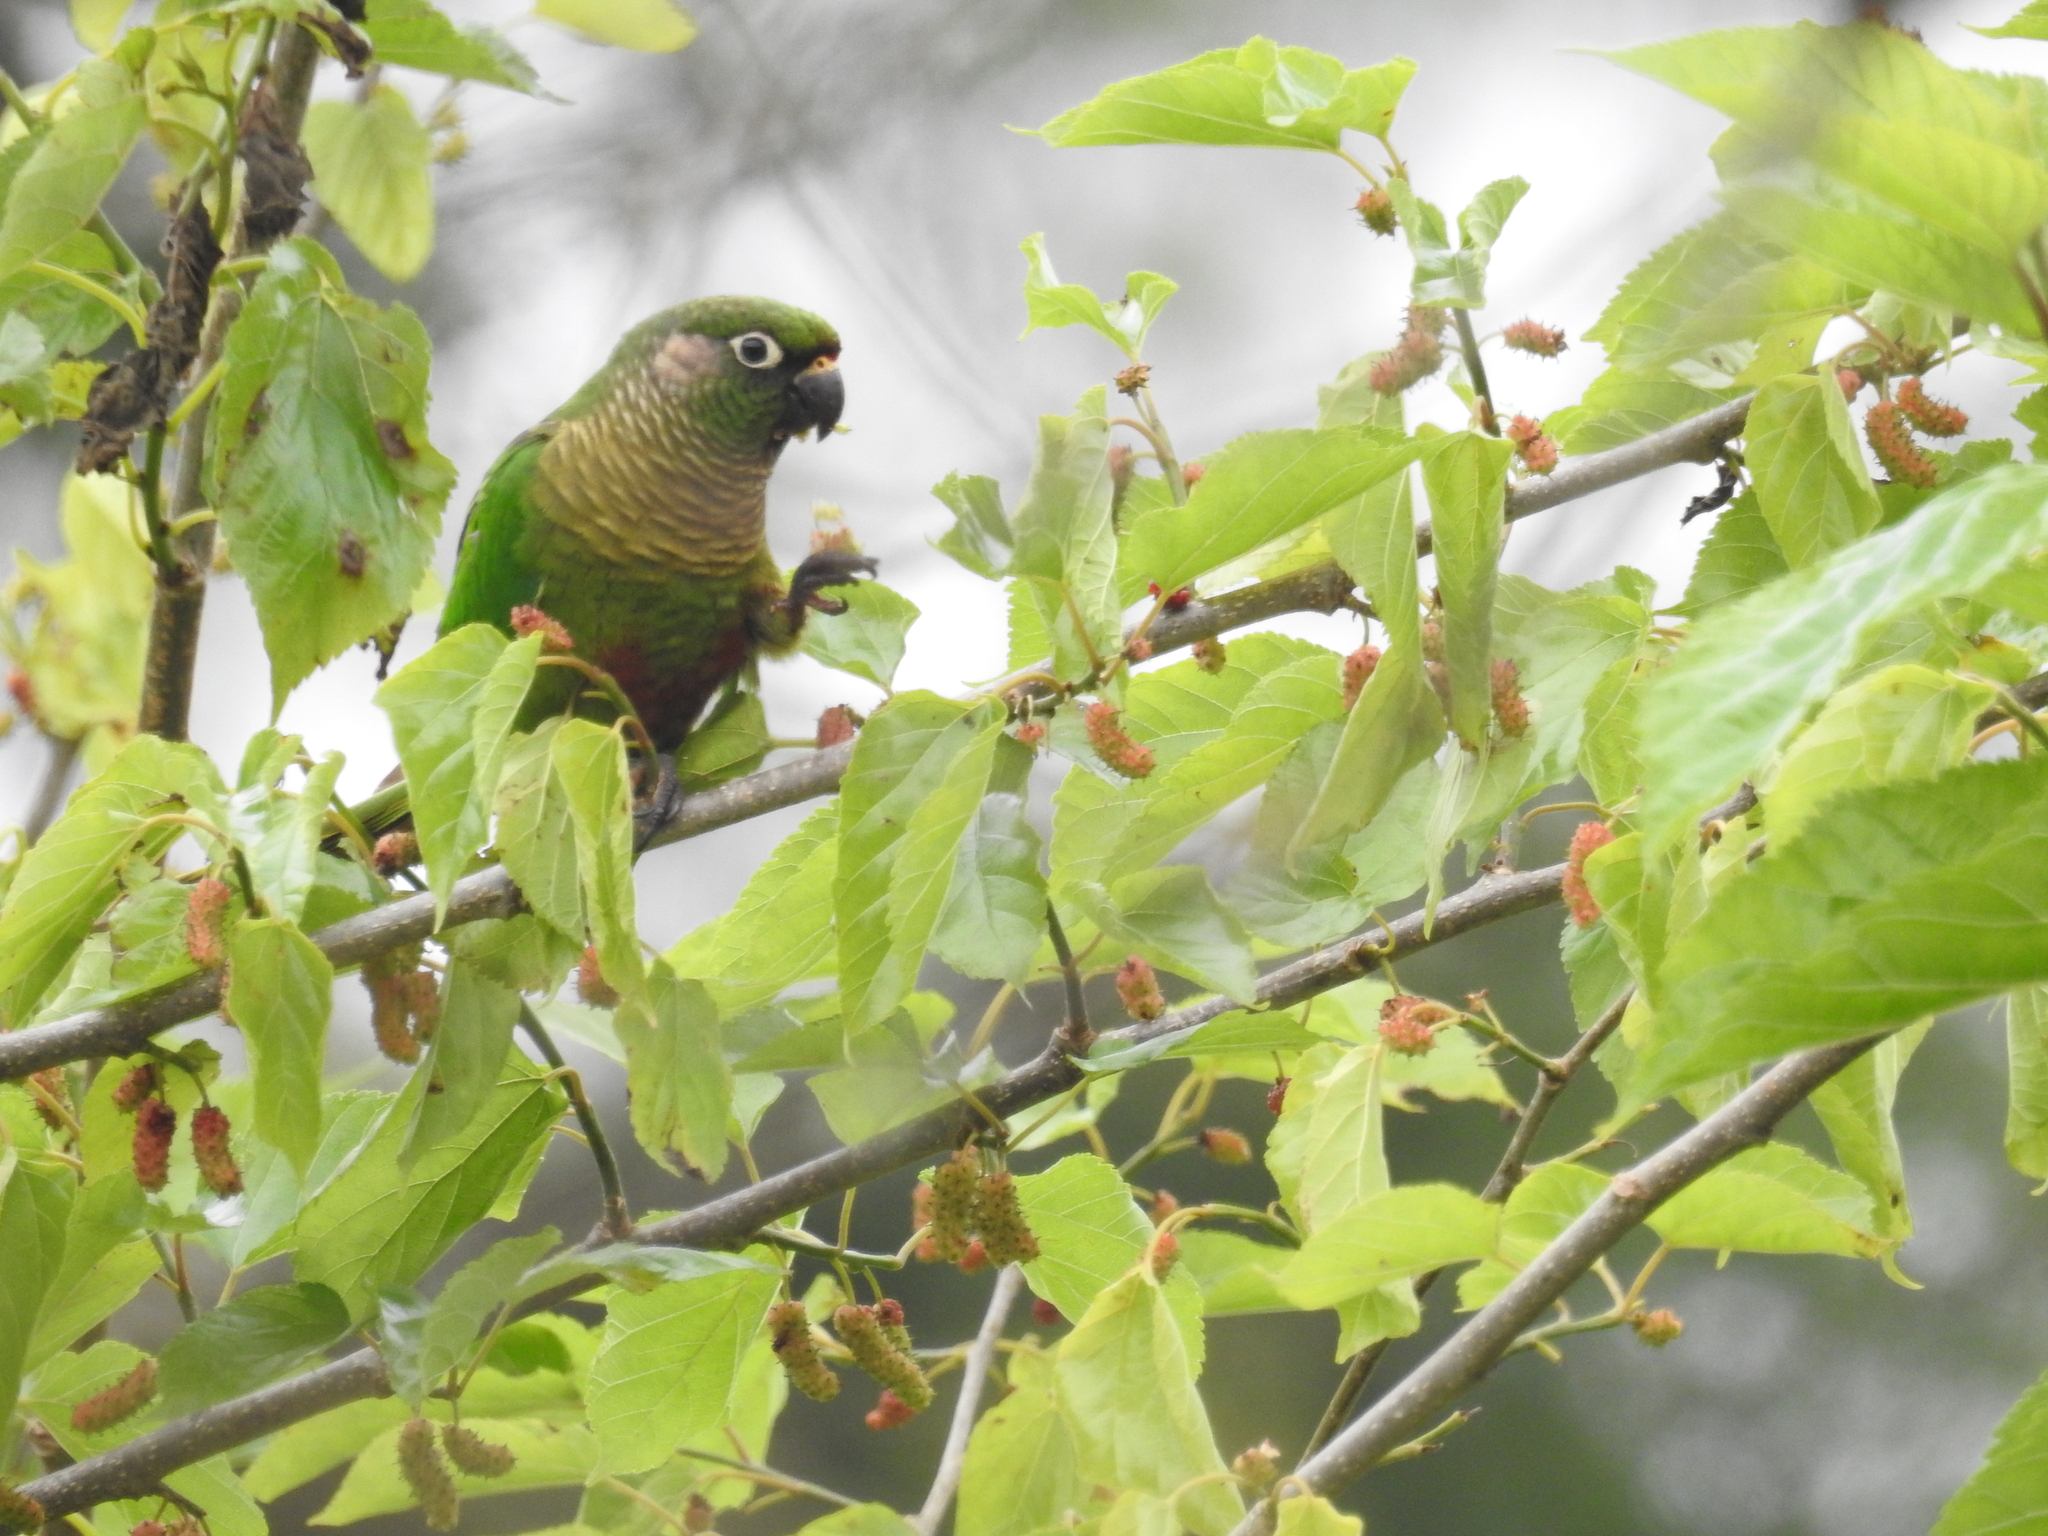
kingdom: Animalia
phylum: Chordata
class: Aves
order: Psittaciformes
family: Psittacidae
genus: Pyrrhura
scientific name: Pyrrhura frontalis
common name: Maroon-bellied parakeet
